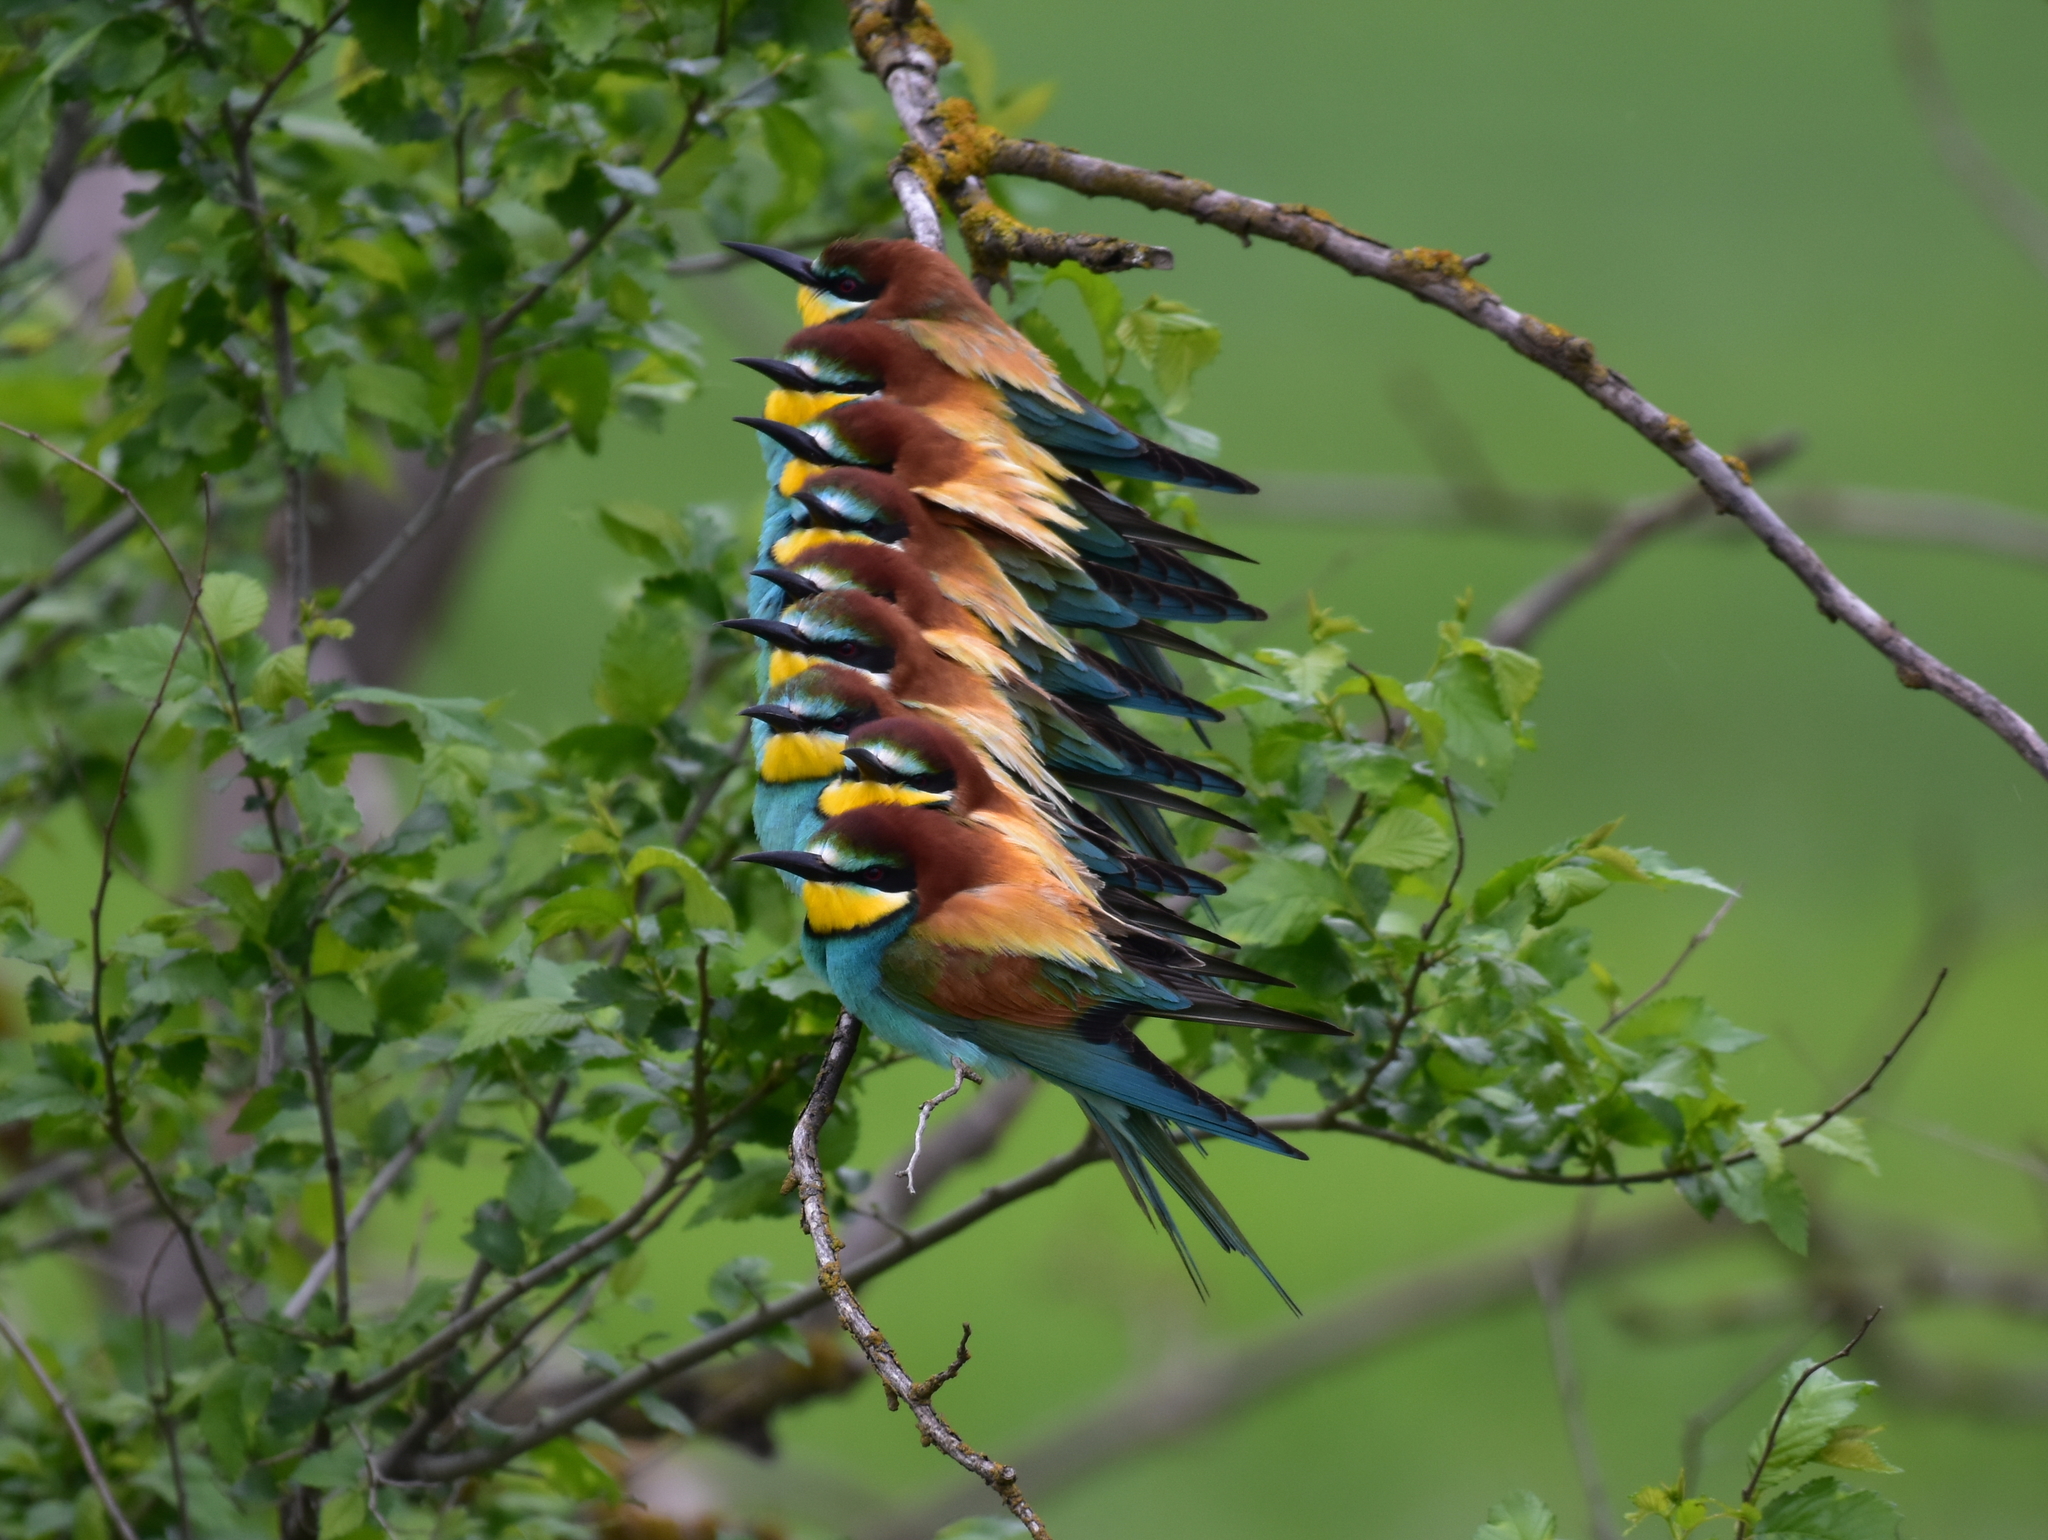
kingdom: Animalia
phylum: Chordata
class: Aves
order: Coraciiformes
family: Meropidae
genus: Merops
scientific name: Merops apiaster
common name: European bee-eater
